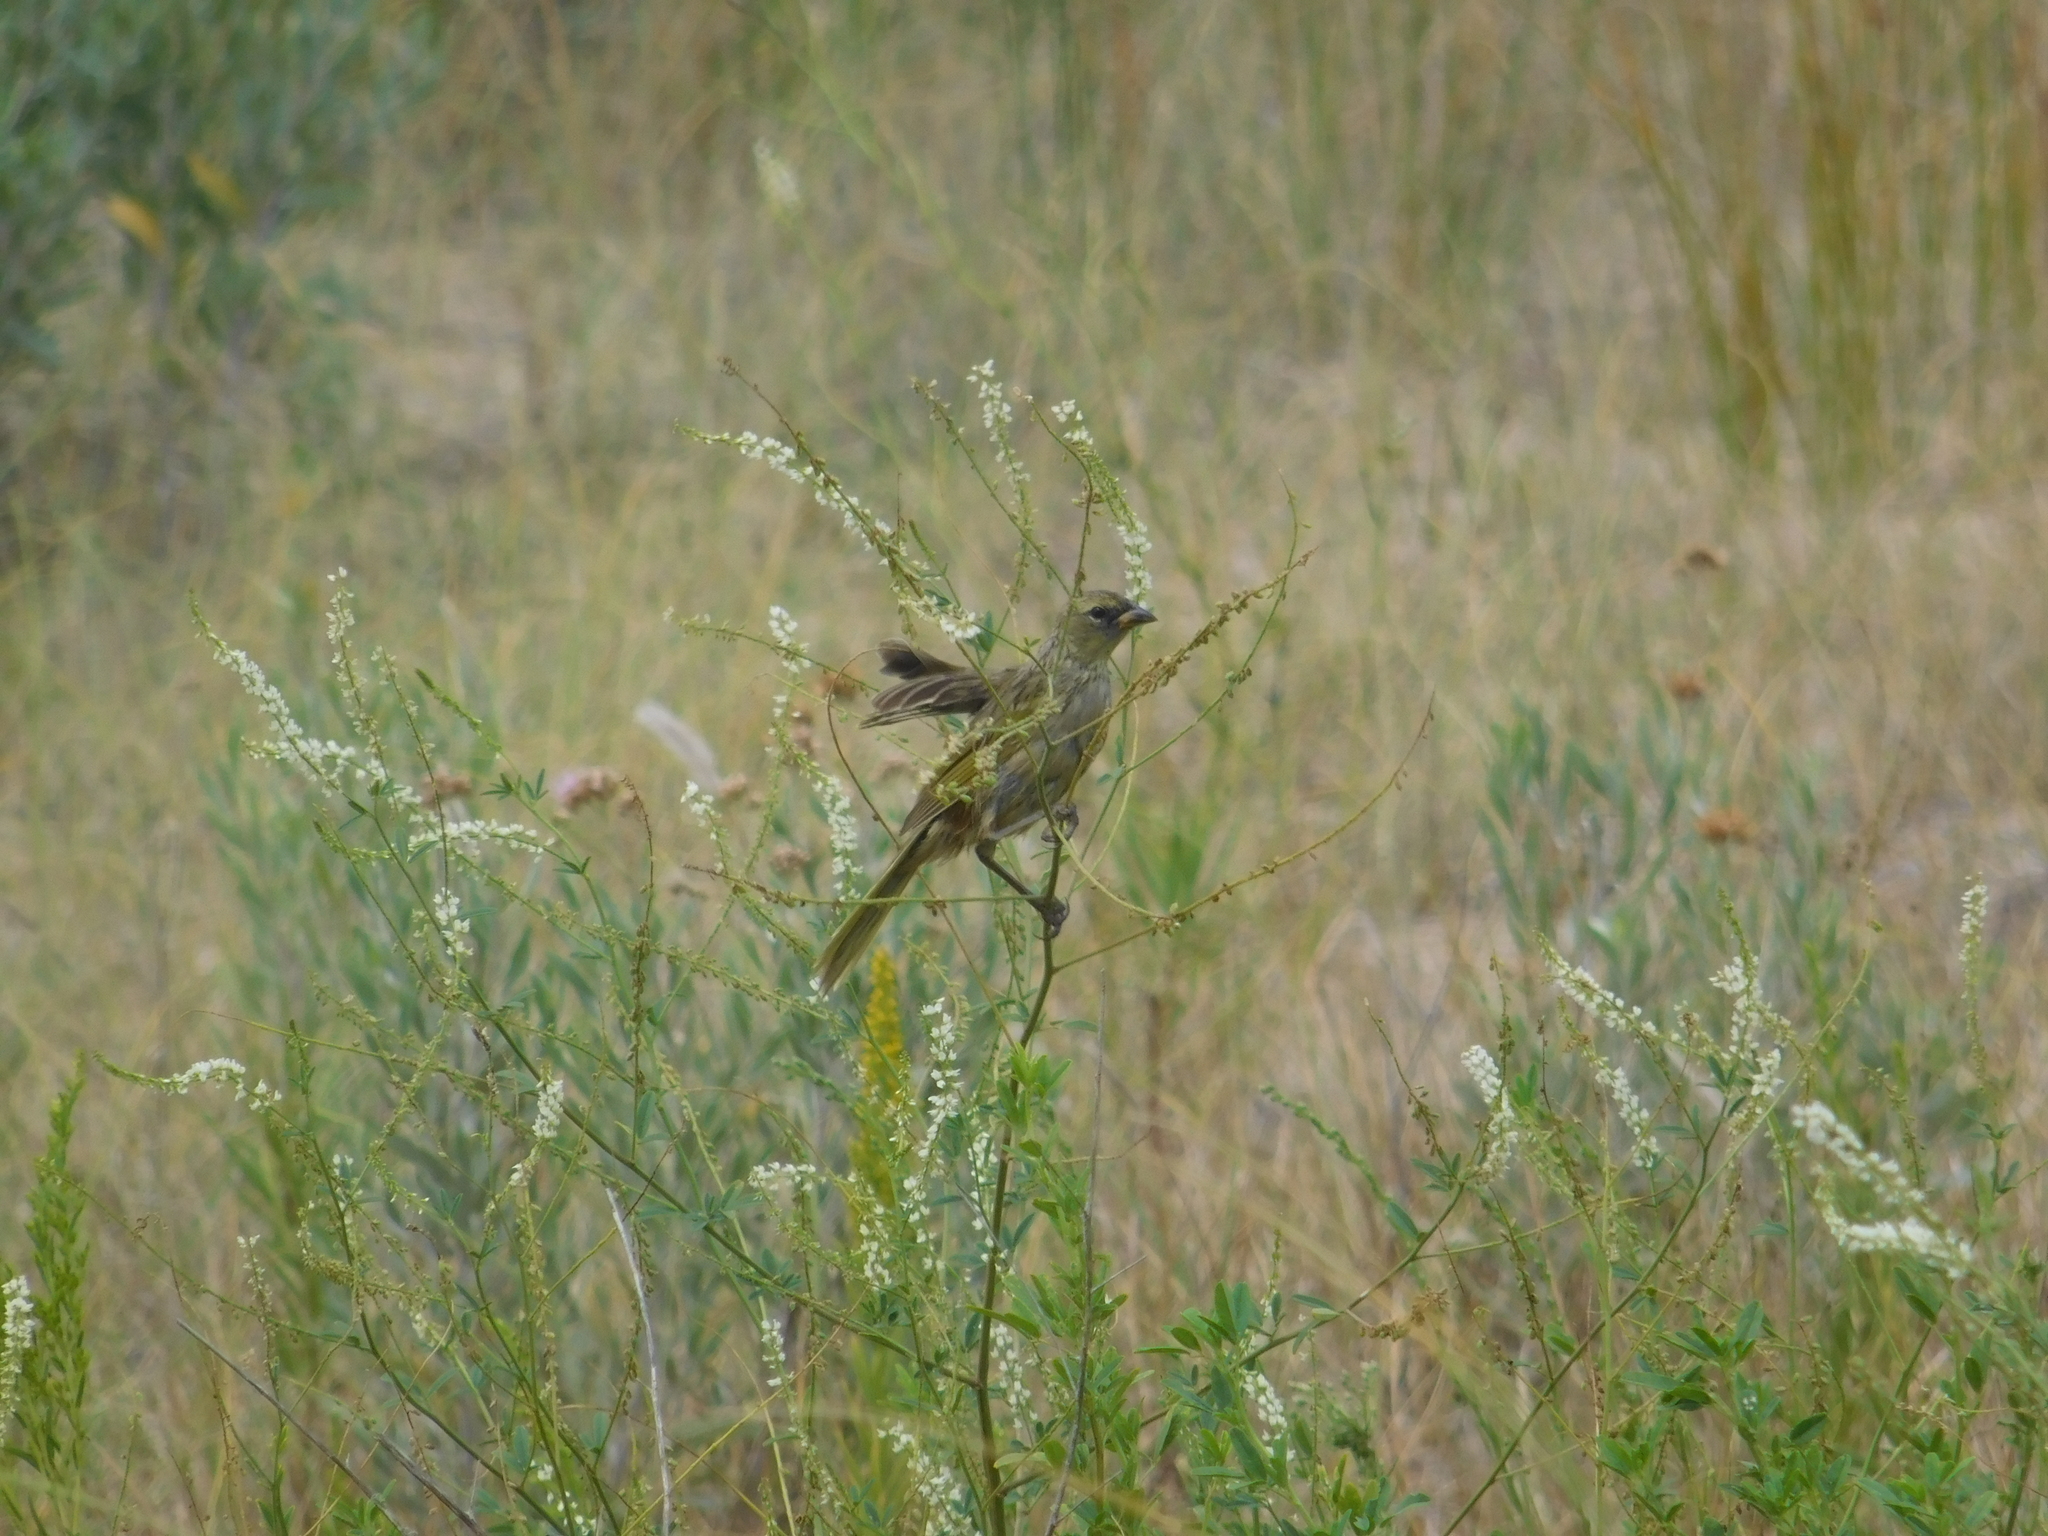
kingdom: Animalia
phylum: Chordata
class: Aves
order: Passeriformes
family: Thraupidae
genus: Embernagra
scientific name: Embernagra platensis
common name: Pampa finch
